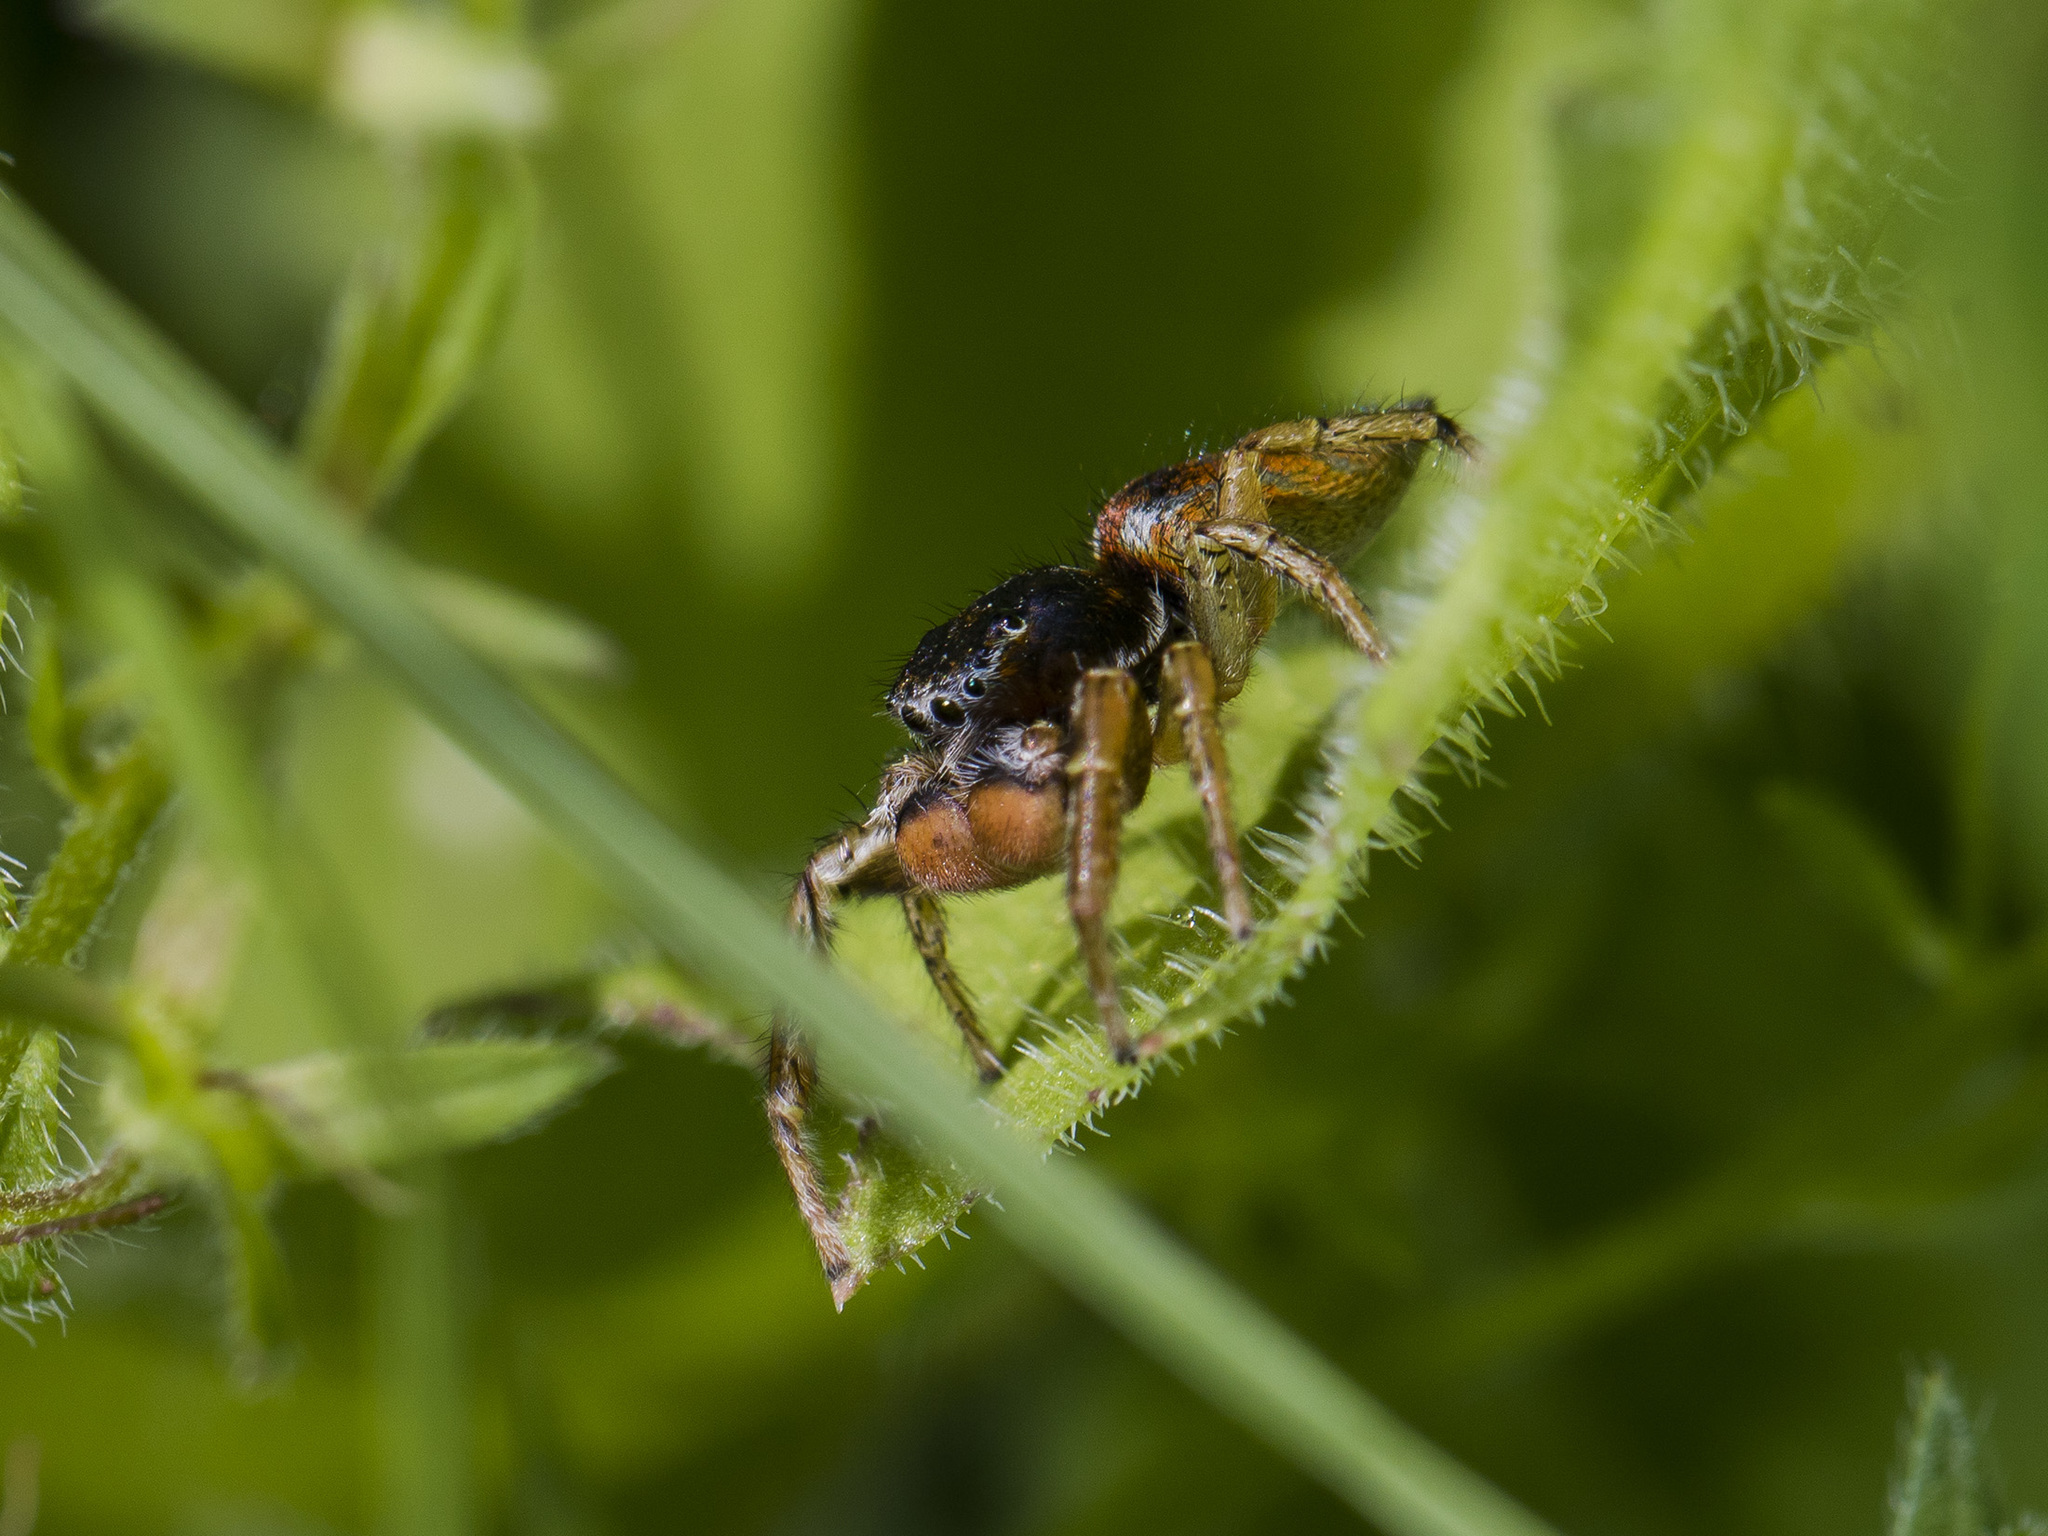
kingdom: Animalia
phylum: Arthropoda
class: Arachnida
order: Araneae
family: Salticidae
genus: Marpissa
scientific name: Marpissa pomatia
